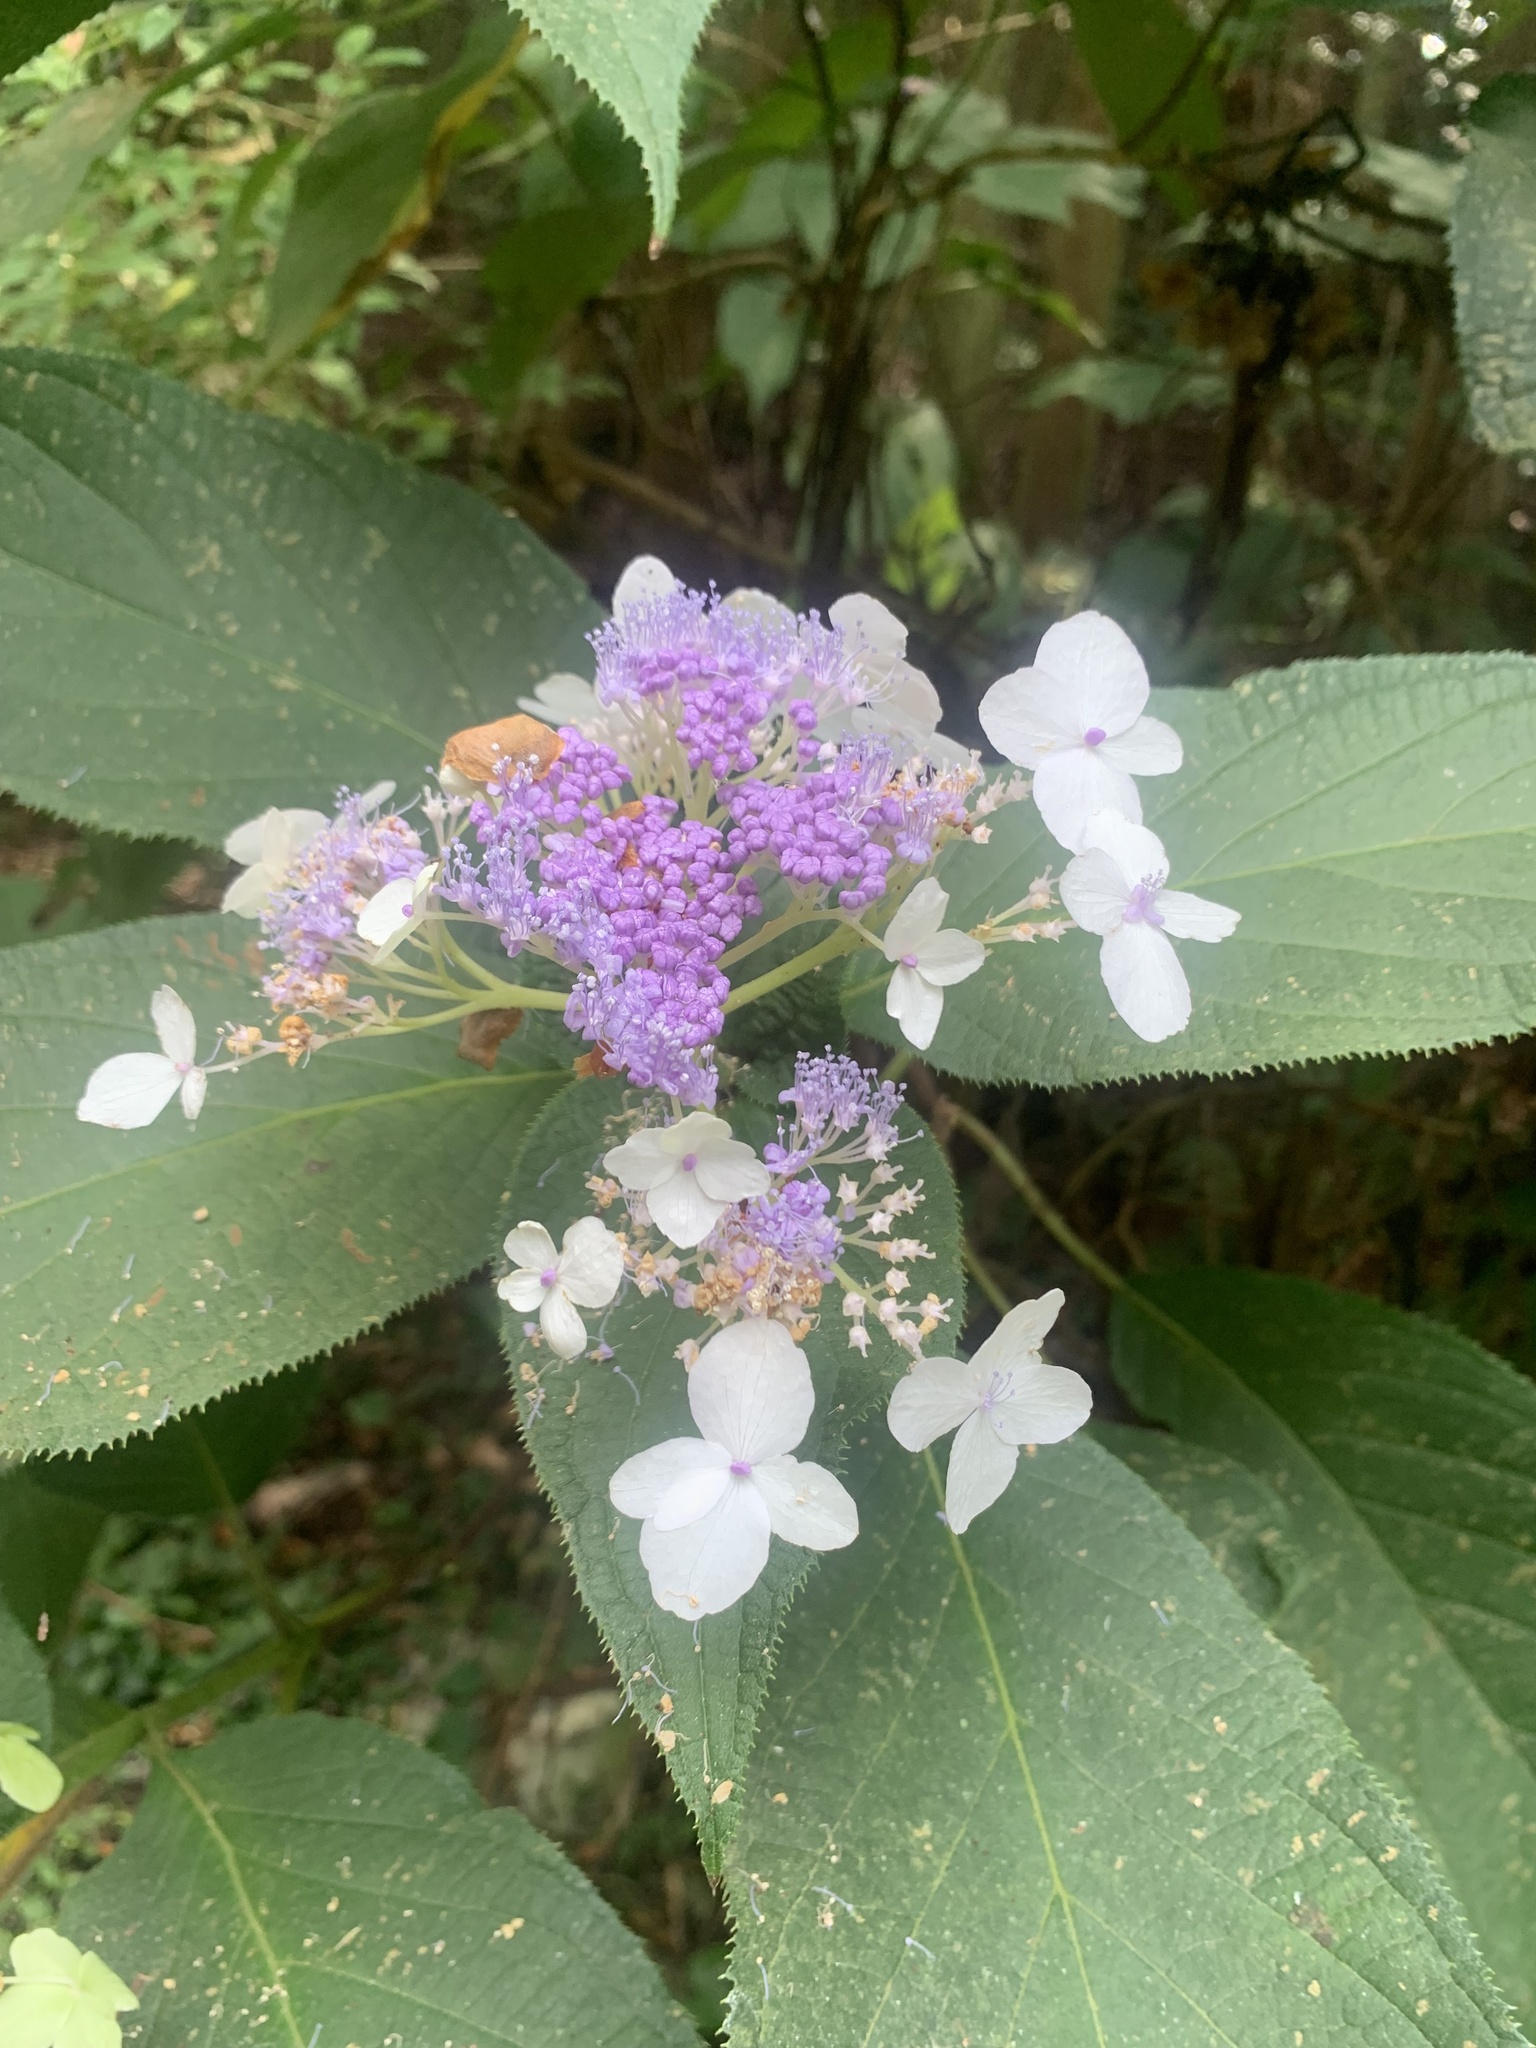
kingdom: Plantae
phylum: Tracheophyta
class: Magnoliopsida
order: Cornales
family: Hydrangeaceae
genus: Hydrangea
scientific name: Hydrangea involucrata
